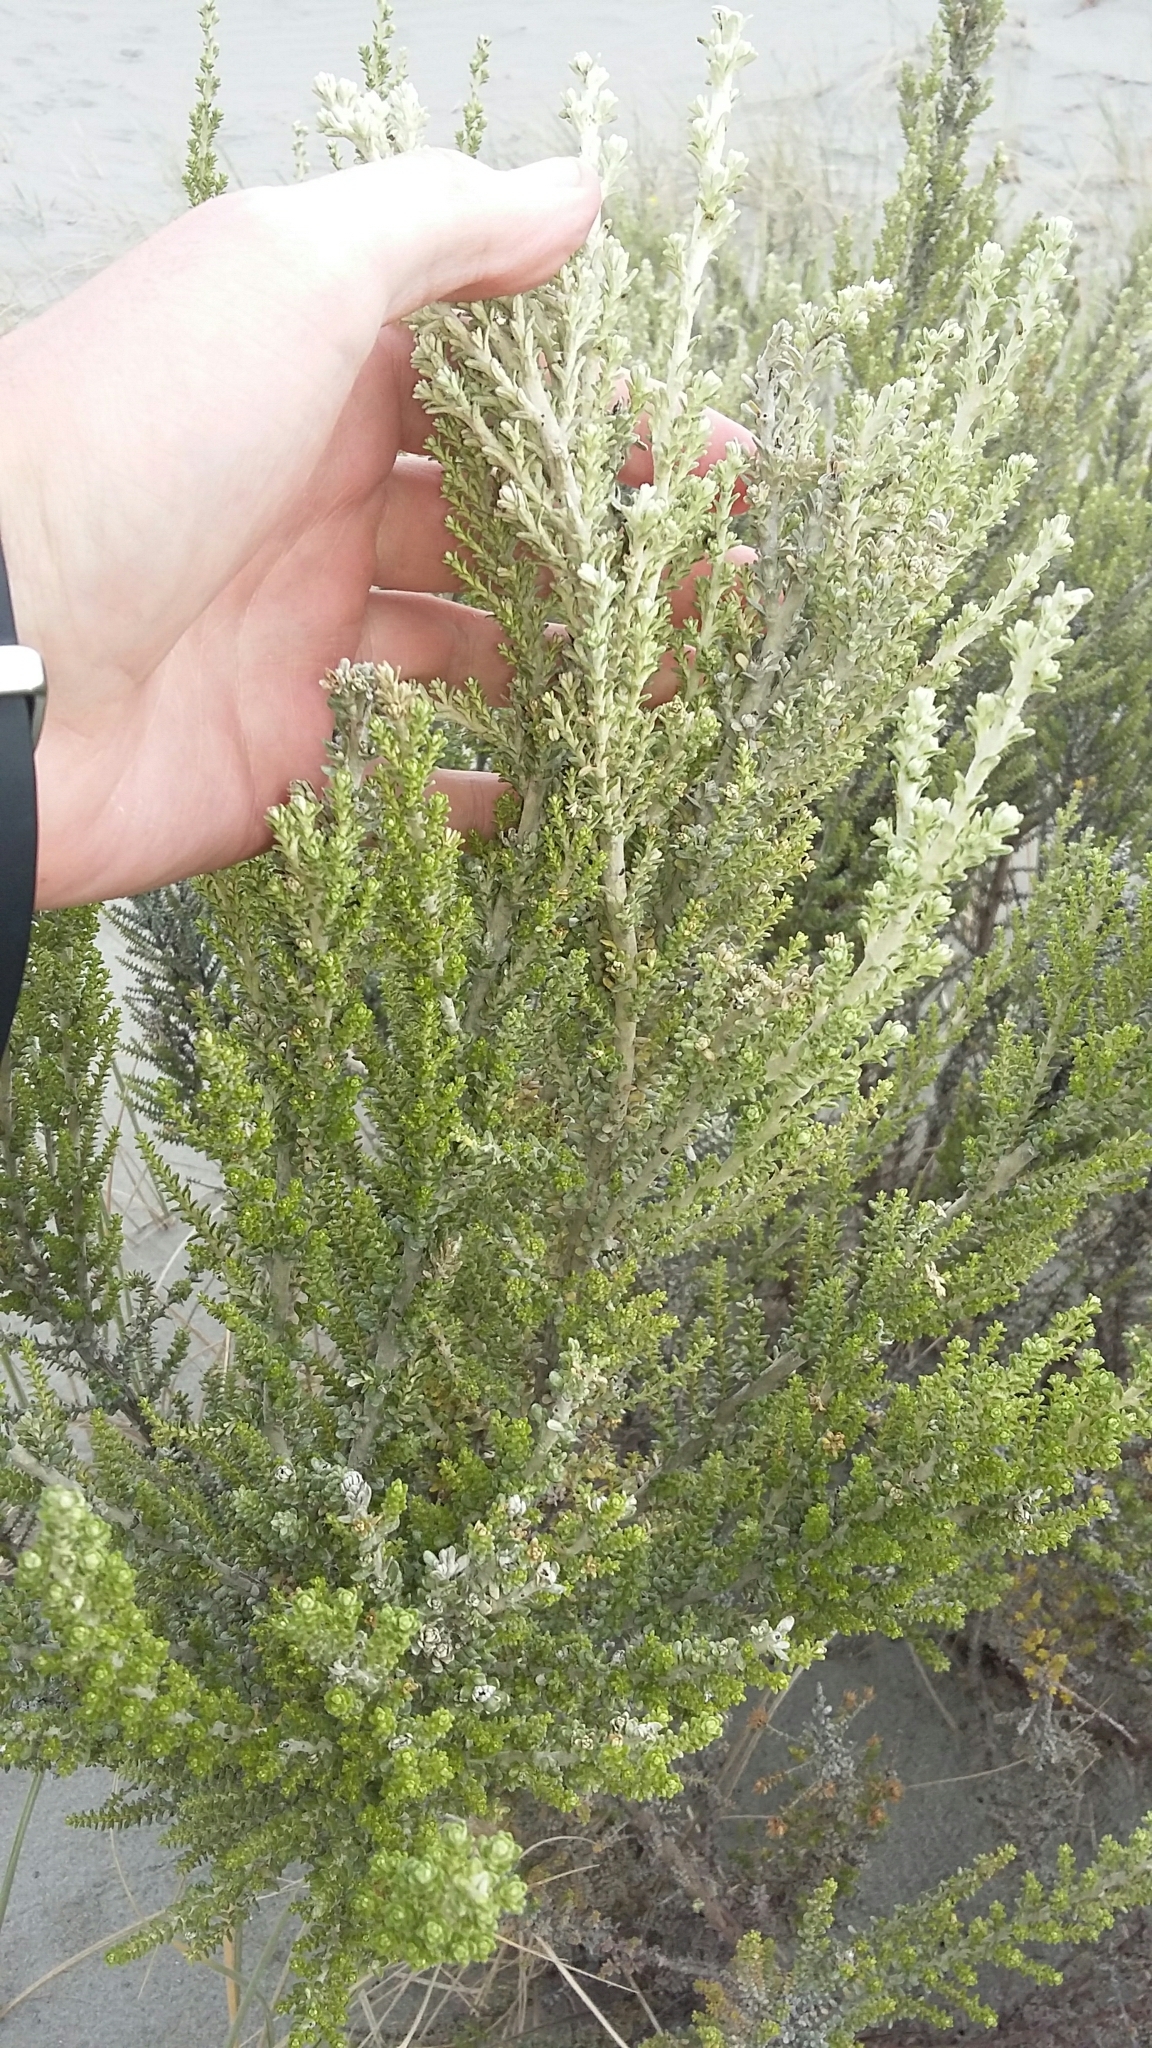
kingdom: Plantae
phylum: Tracheophyta
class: Magnoliopsida
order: Asterales
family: Asteraceae
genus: Ozothamnus
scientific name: Ozothamnus leptophyllus
